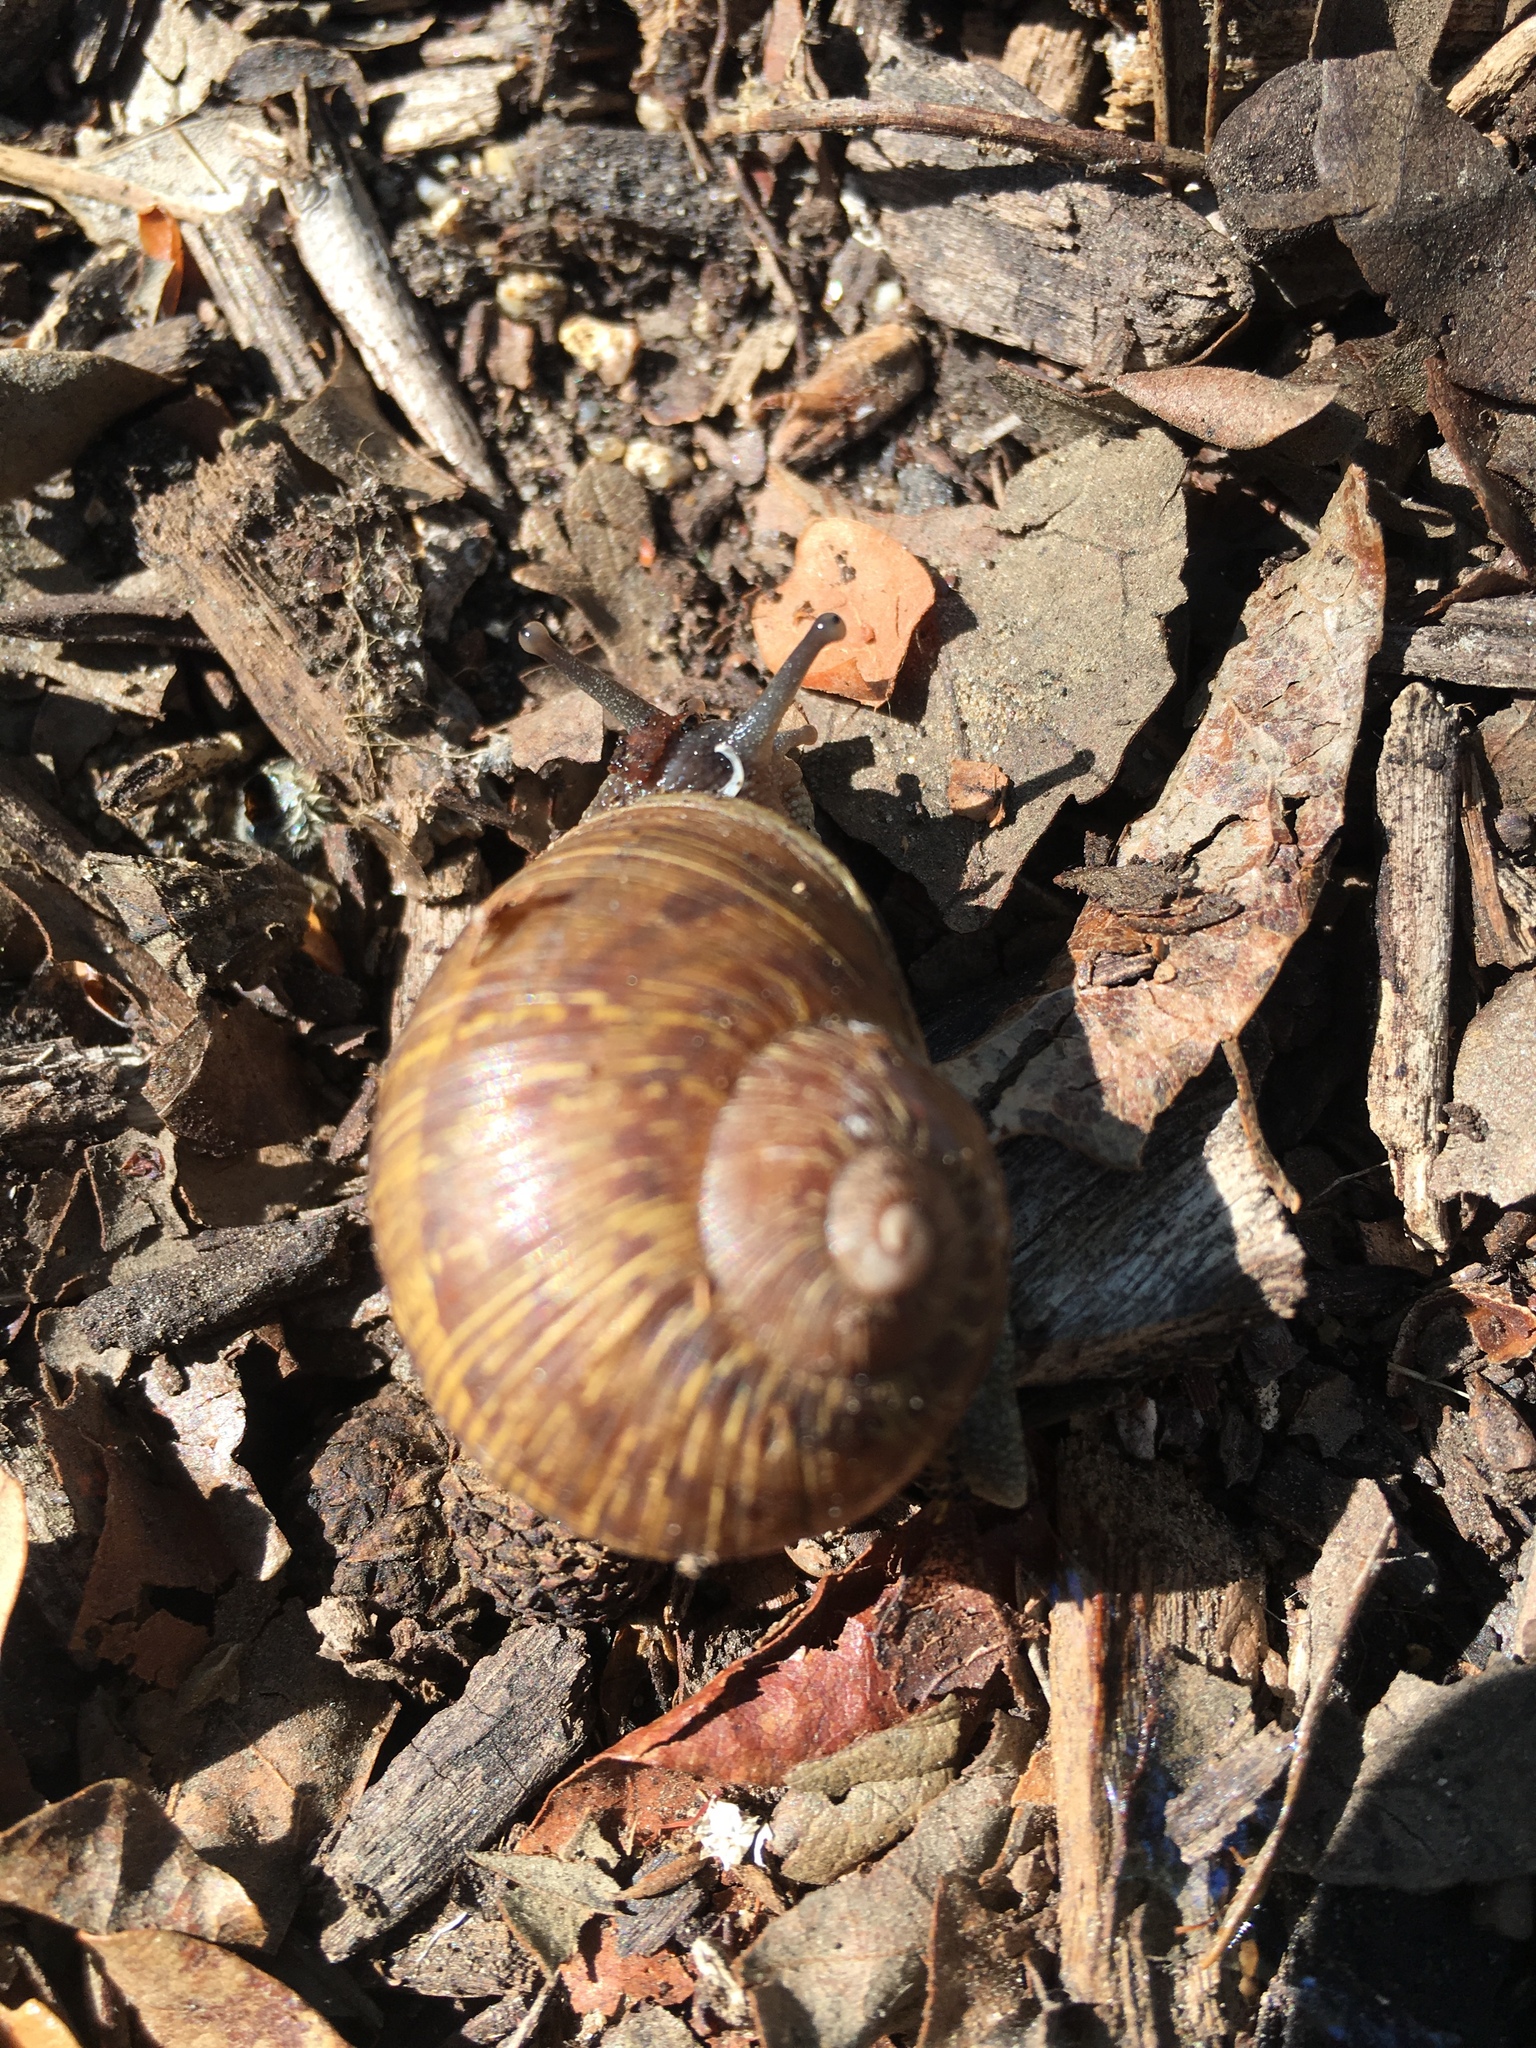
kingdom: Animalia
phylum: Mollusca
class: Gastropoda
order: Stylommatophora
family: Helicidae
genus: Cornu
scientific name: Cornu aspersum
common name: Brown garden snail
